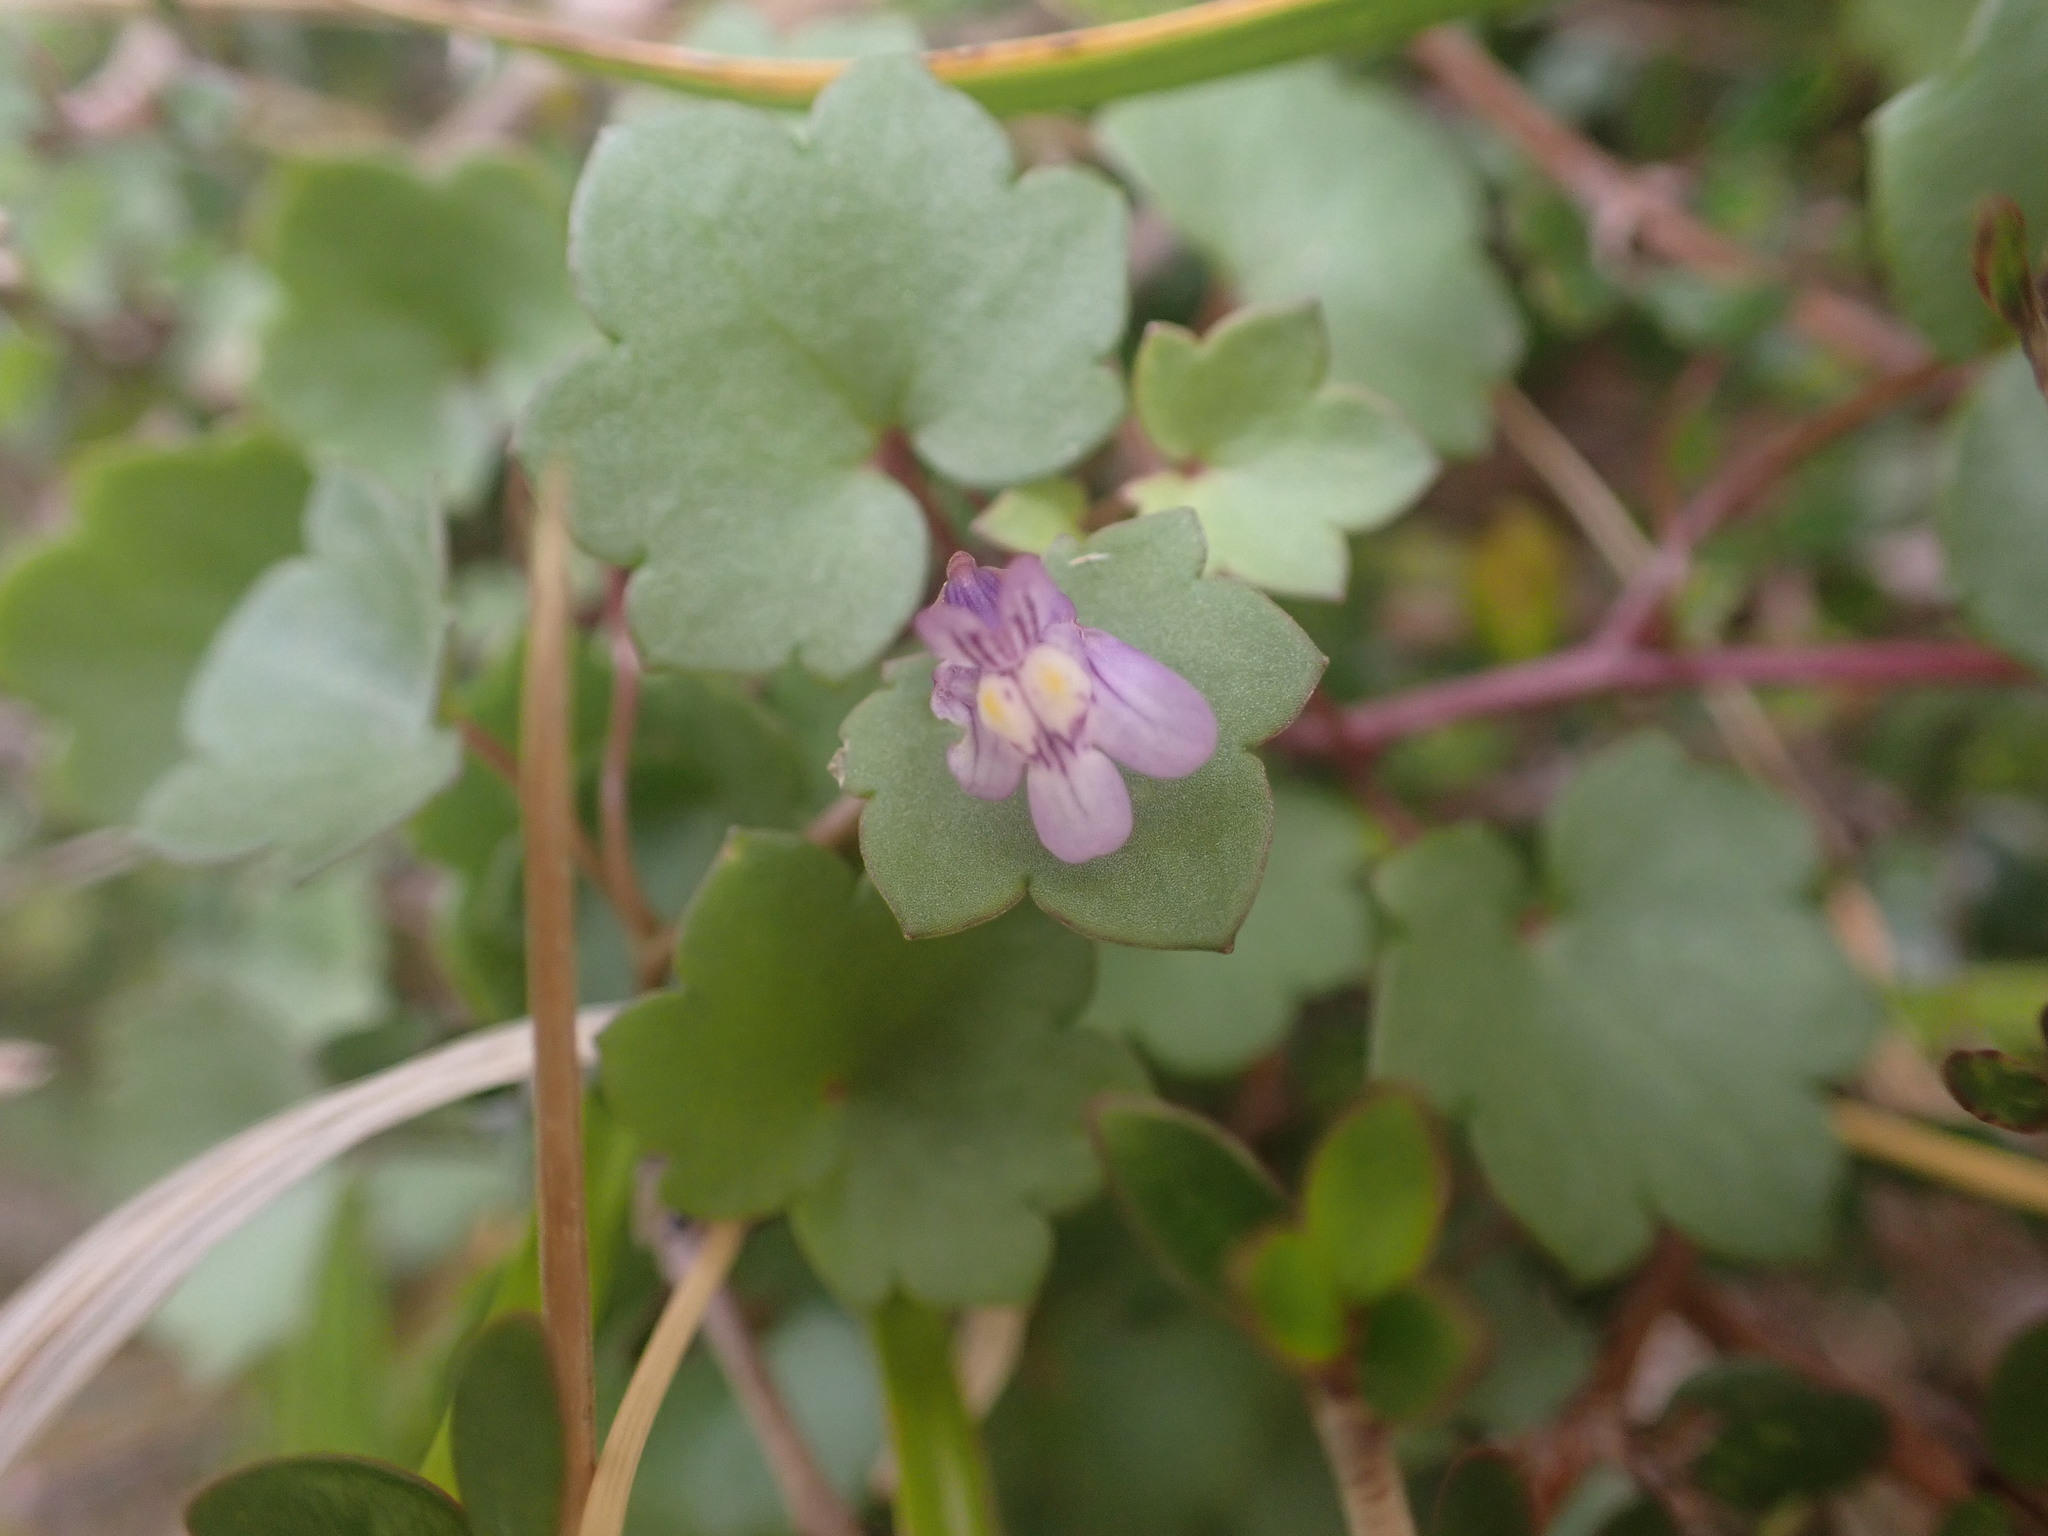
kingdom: Plantae
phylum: Tracheophyta
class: Magnoliopsida
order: Lamiales
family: Plantaginaceae
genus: Cymbalaria
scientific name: Cymbalaria muralis
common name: Ivy-leaved toadflax
